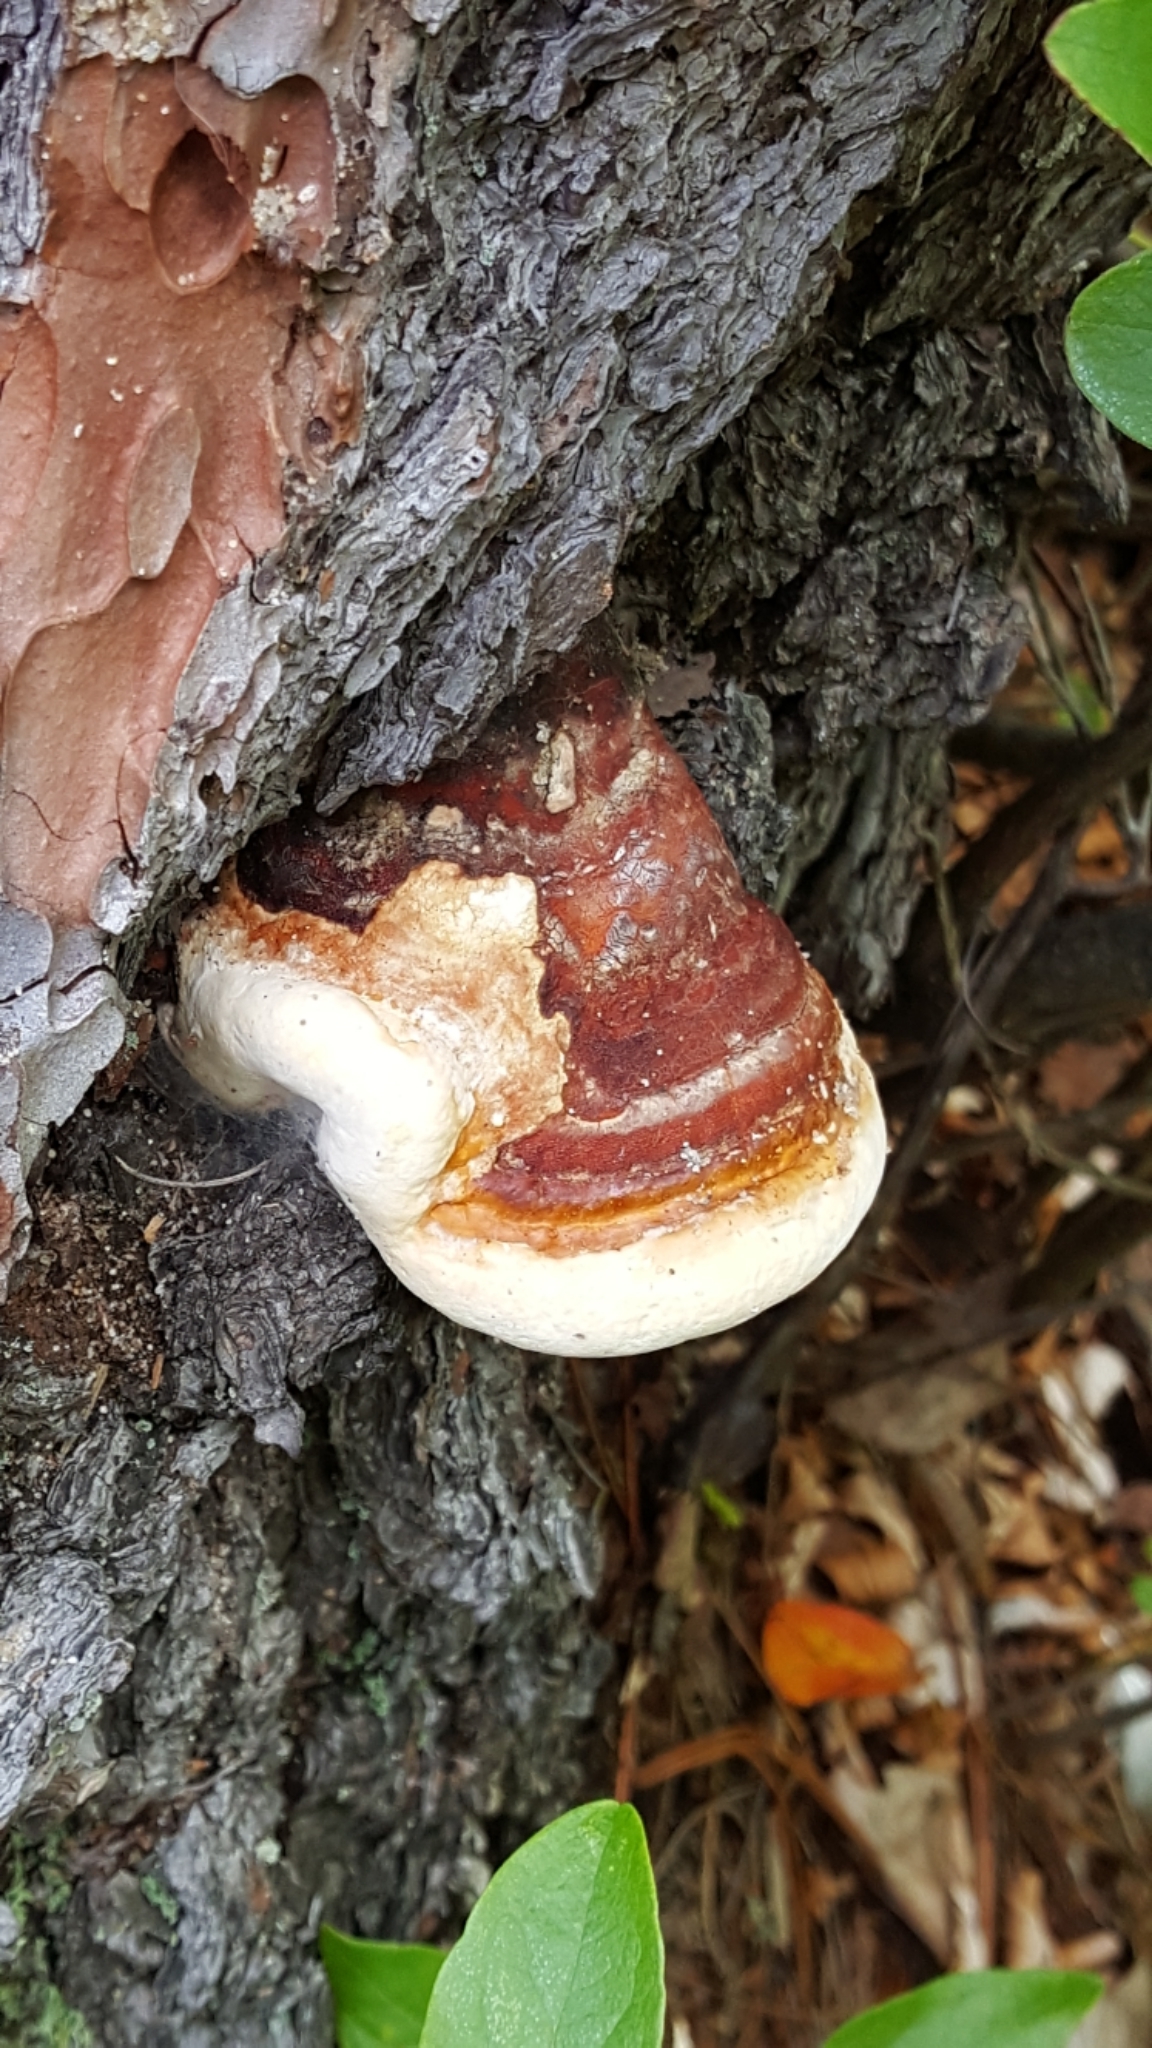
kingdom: Fungi
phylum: Basidiomycota
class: Agaricomycetes
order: Polyporales
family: Fomitopsidaceae
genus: Fomitopsis
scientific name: Fomitopsis mounceae
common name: Northern red belt
